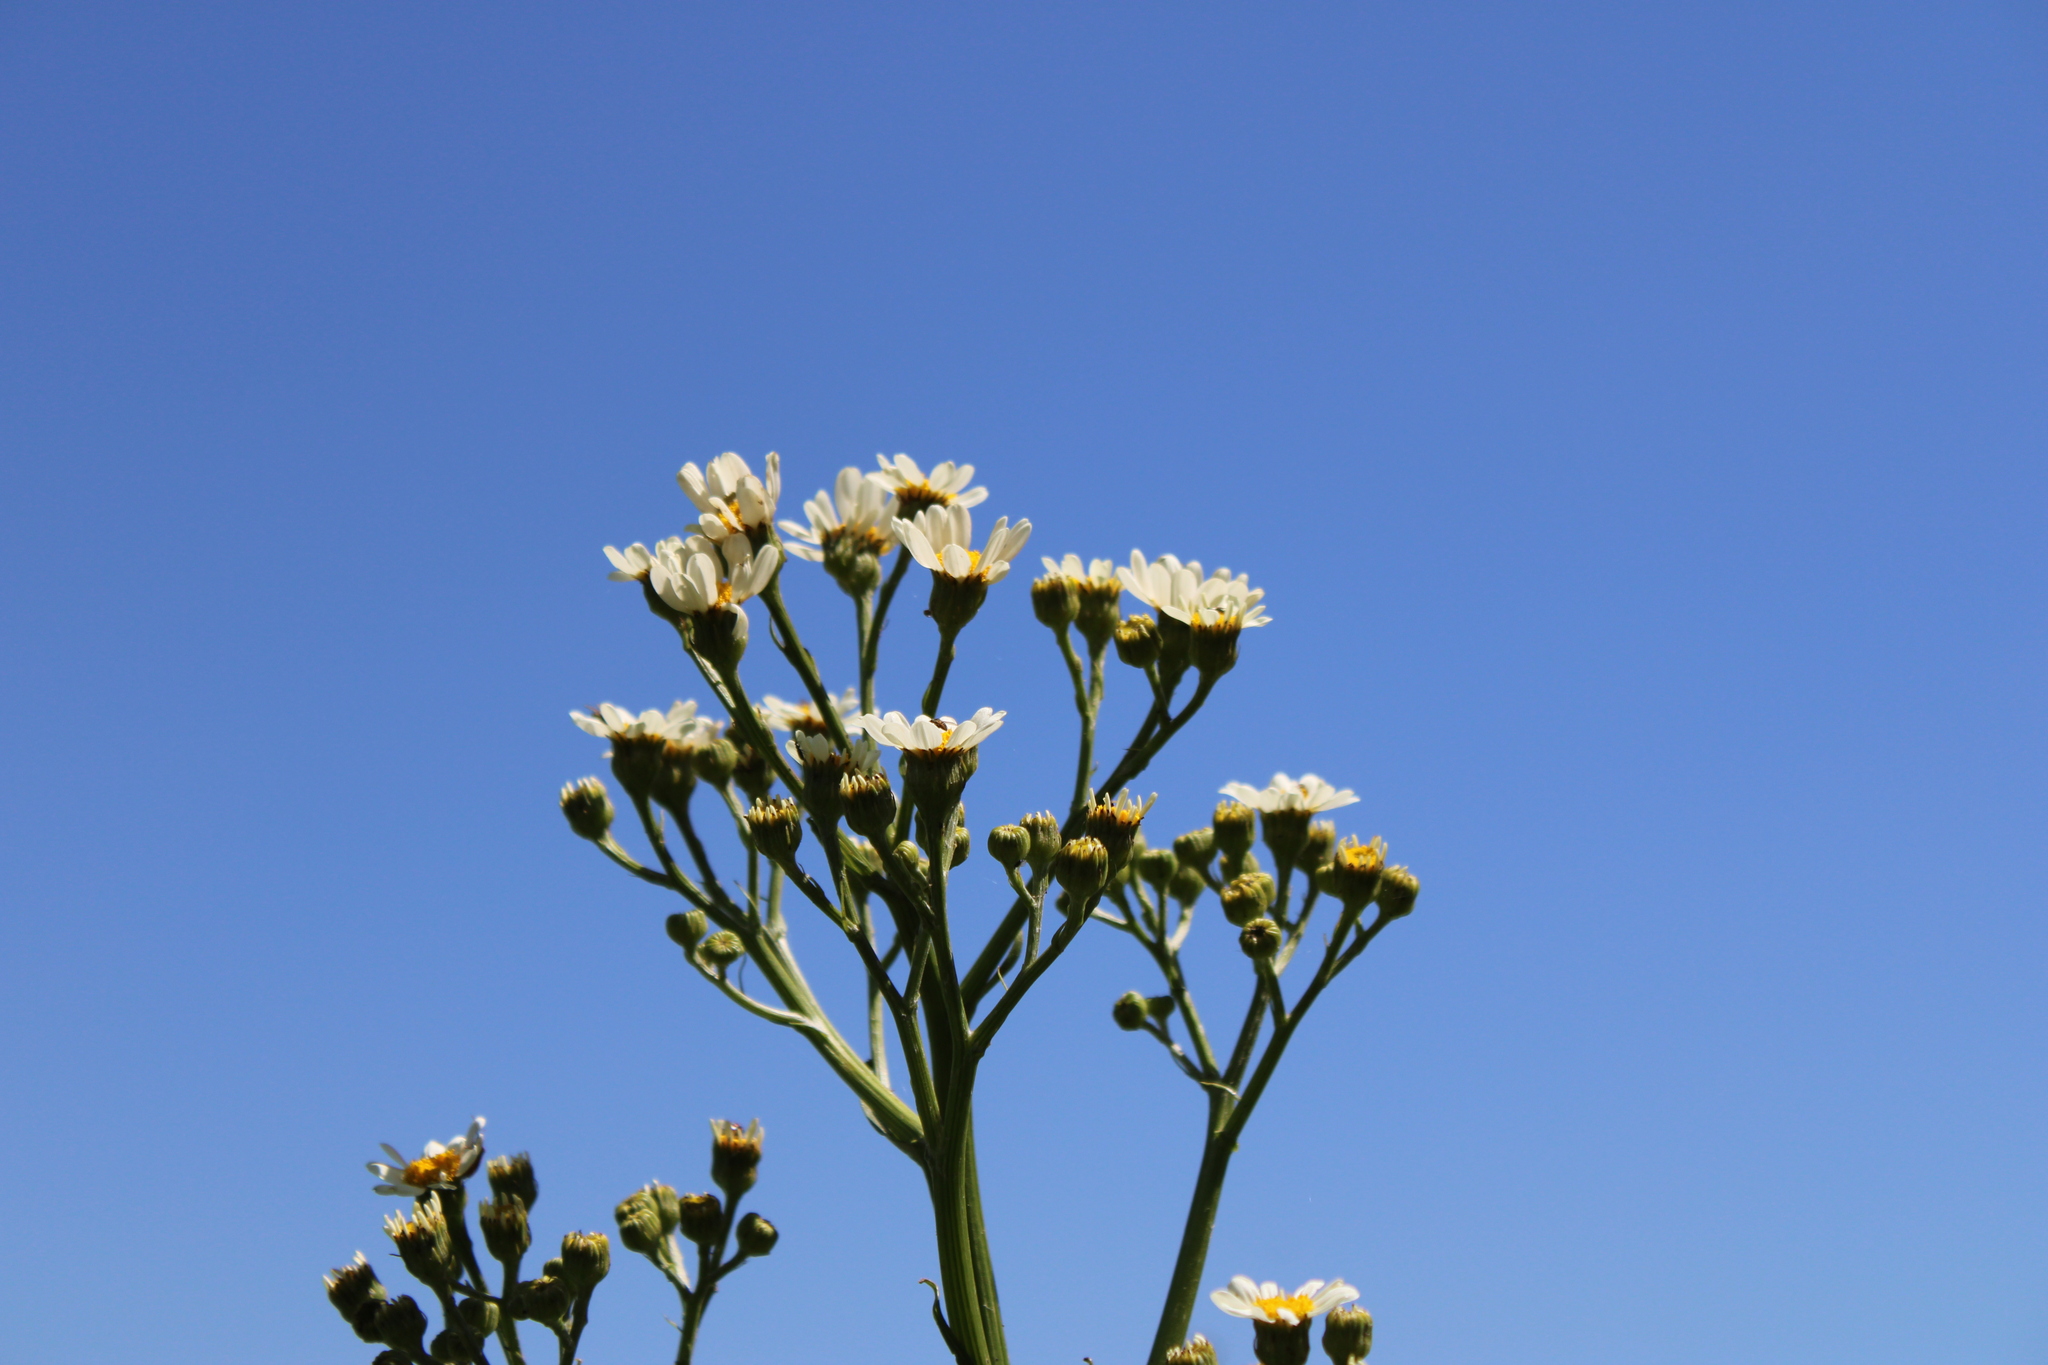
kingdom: Plantae
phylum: Tracheophyta
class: Magnoliopsida
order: Asterales
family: Asteraceae
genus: Senecio
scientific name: Senecio bonariensis
